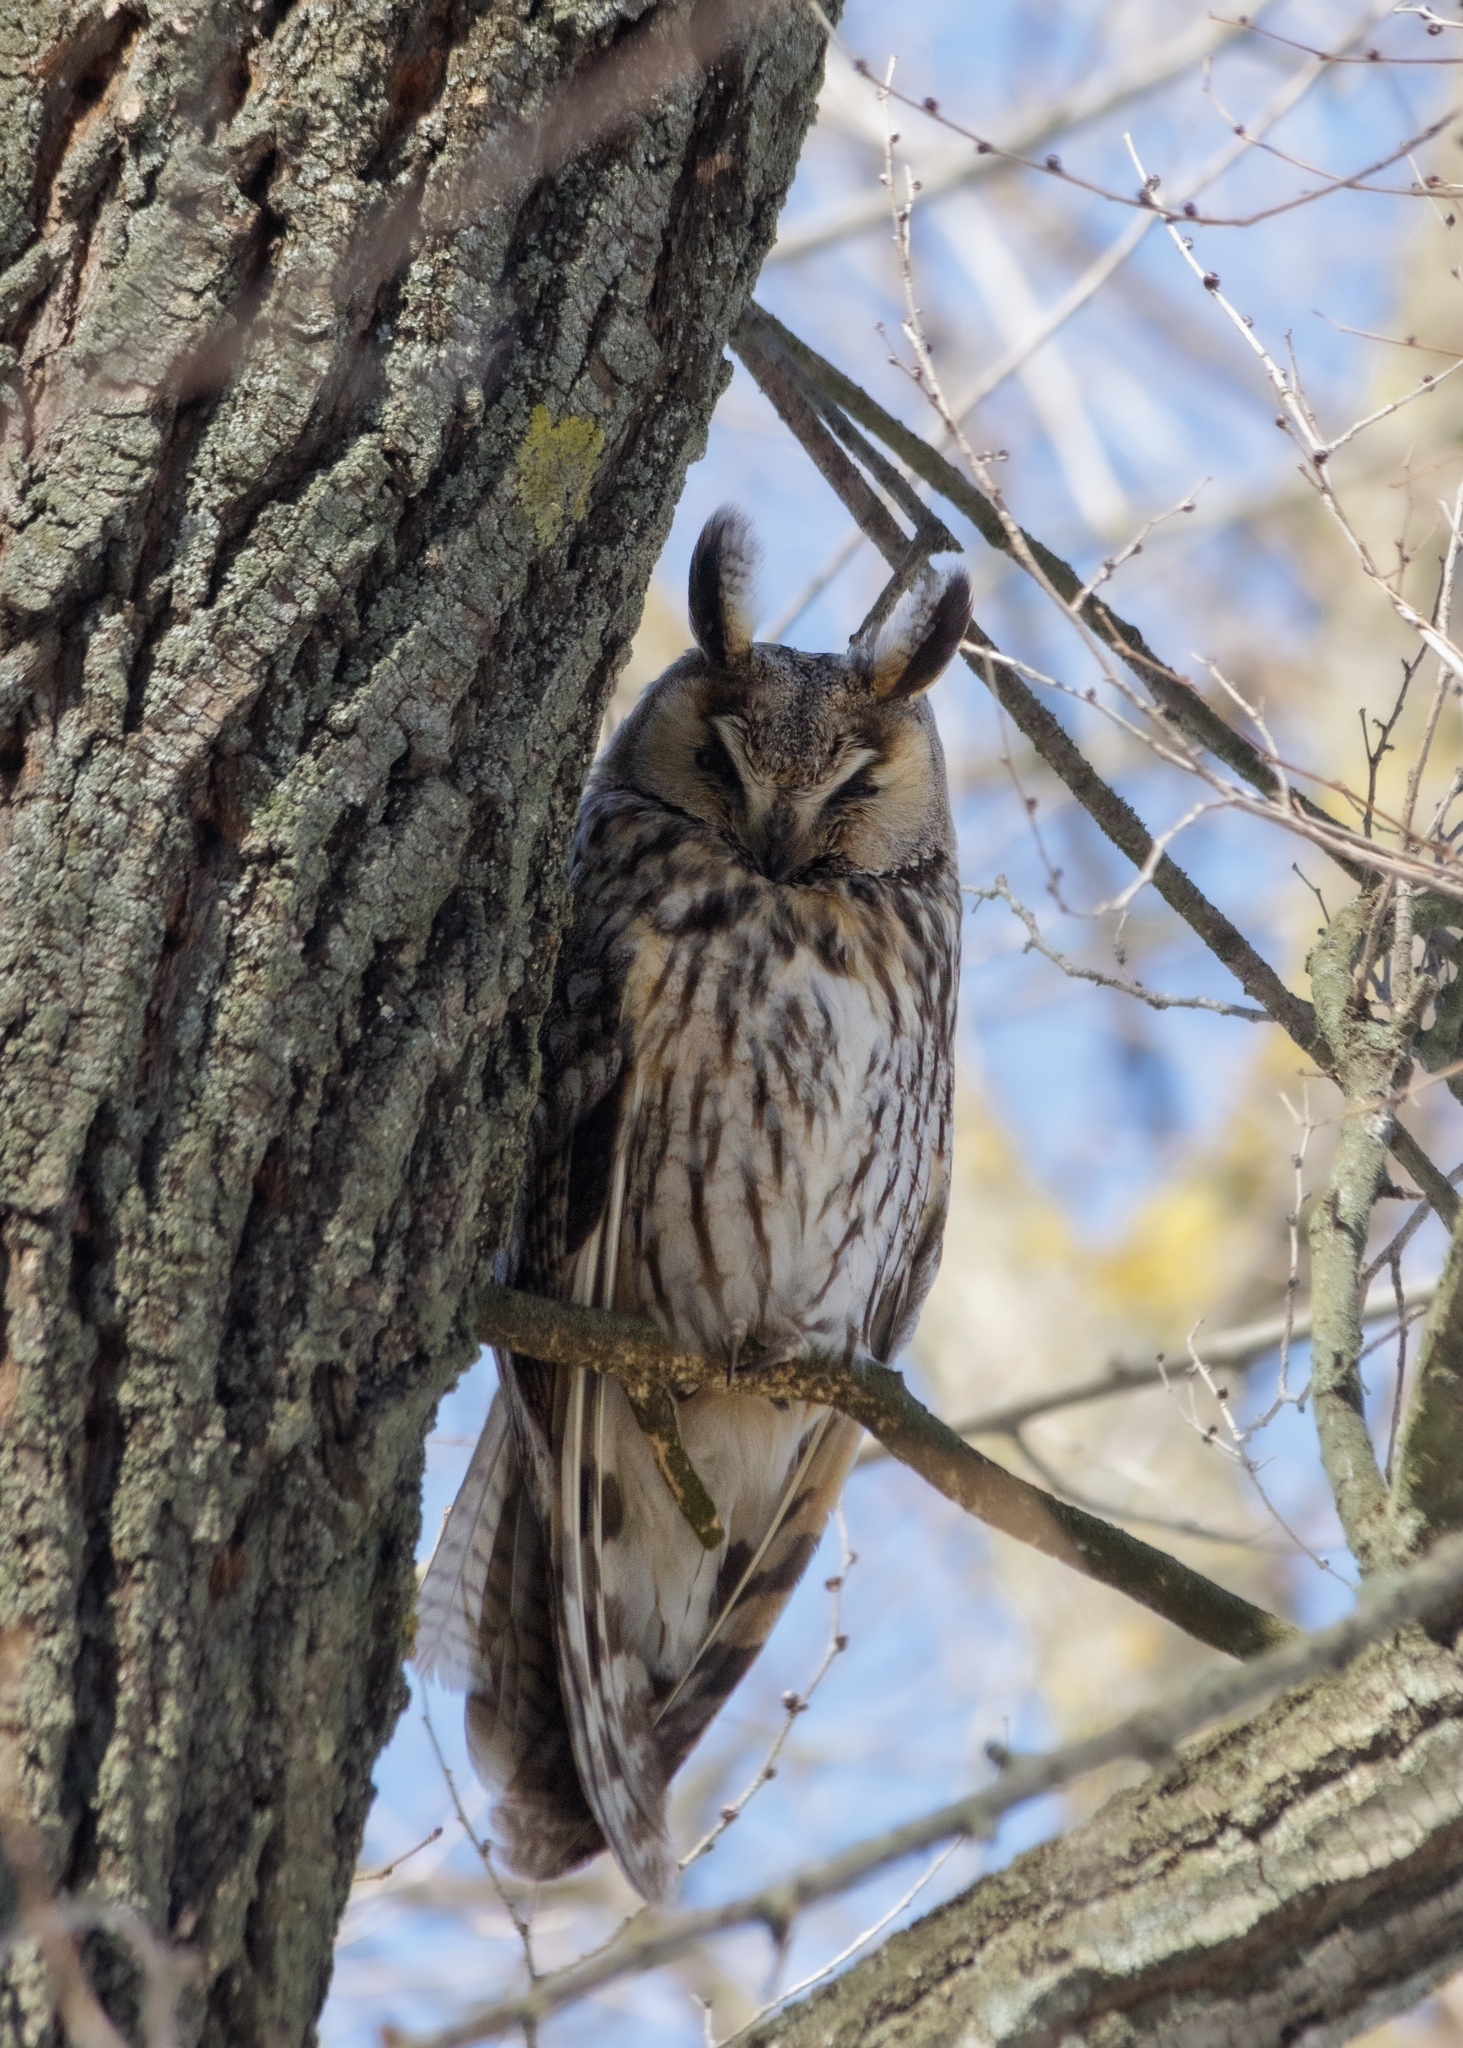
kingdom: Animalia
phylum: Chordata
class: Aves
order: Strigiformes
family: Strigidae
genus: Asio
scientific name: Asio otus
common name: Long-eared owl
